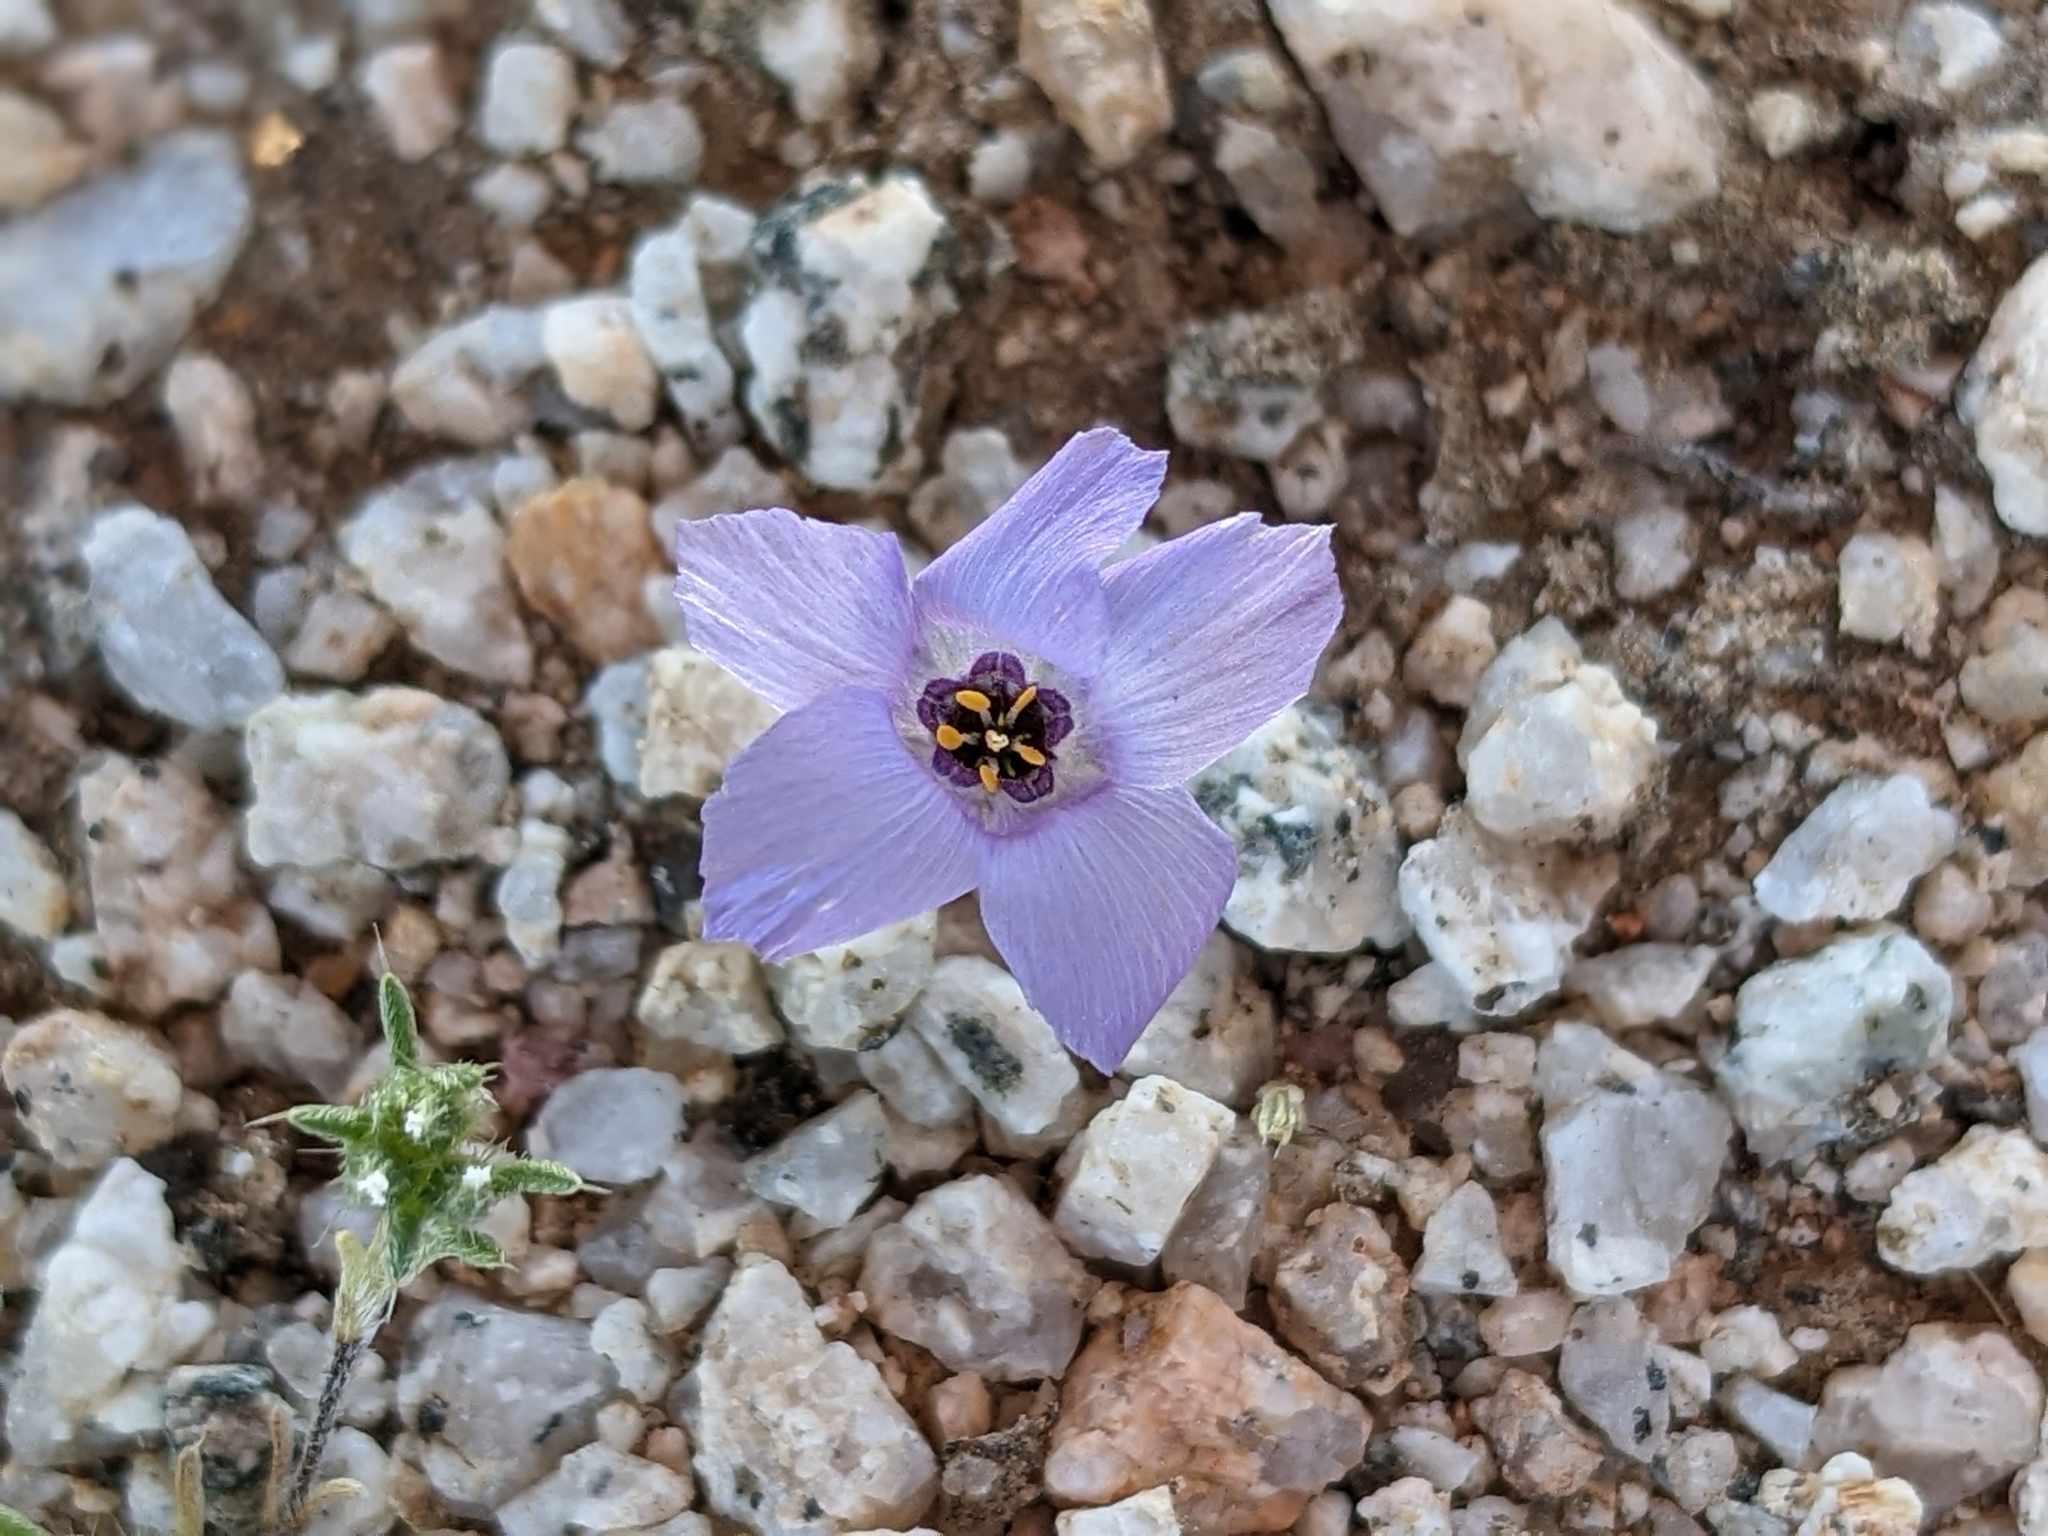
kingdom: Plantae
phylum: Tracheophyta
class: Magnoliopsida
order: Ericales
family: Polemoniaceae
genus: Linanthus
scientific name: Linanthus parryae
